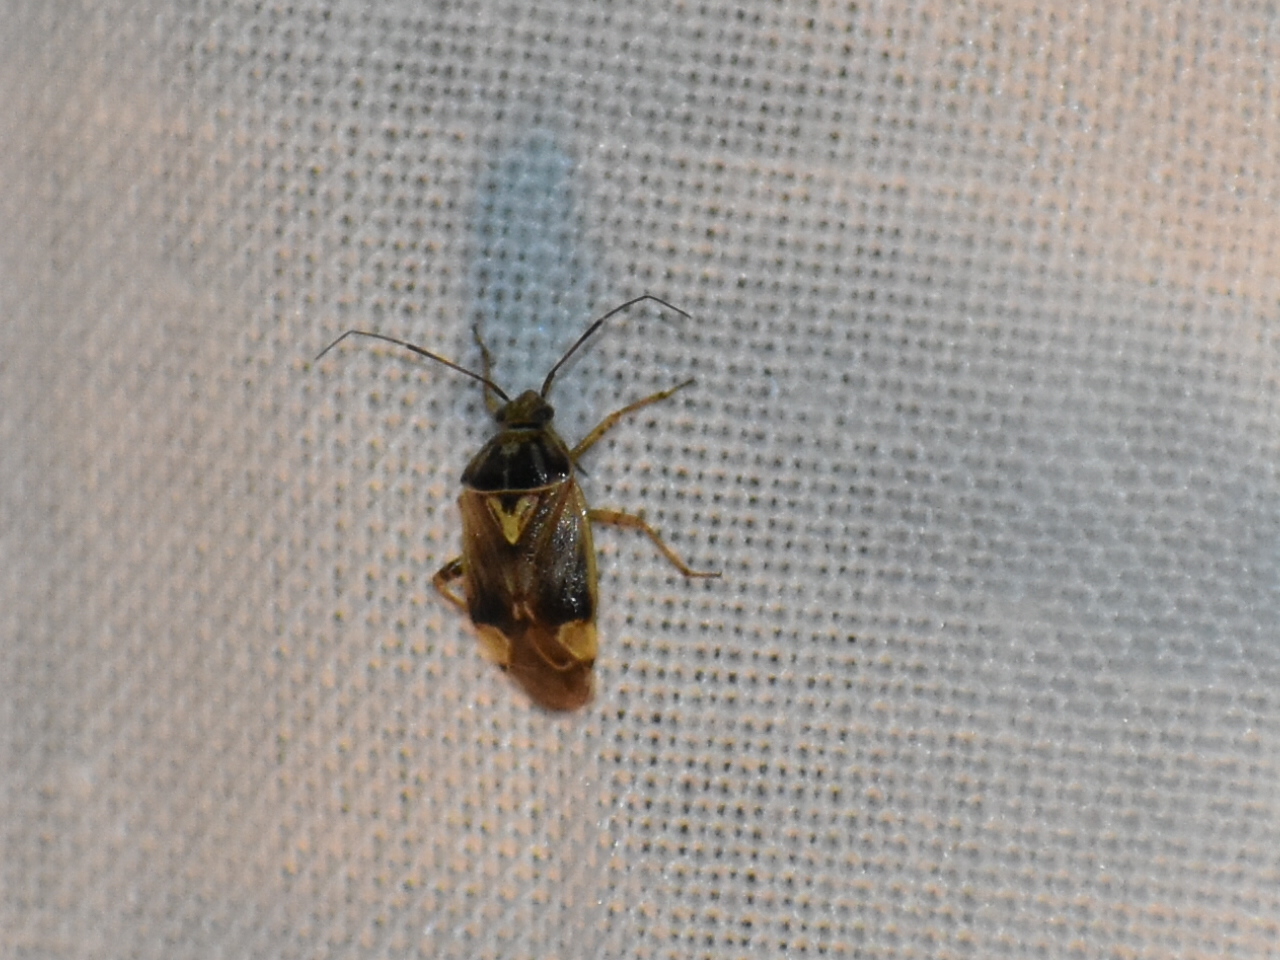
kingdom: Animalia
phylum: Arthropoda
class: Insecta
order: Hemiptera
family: Miridae
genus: Lygus
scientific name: Lygus lineolaris
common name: North american tarnished plant bug
